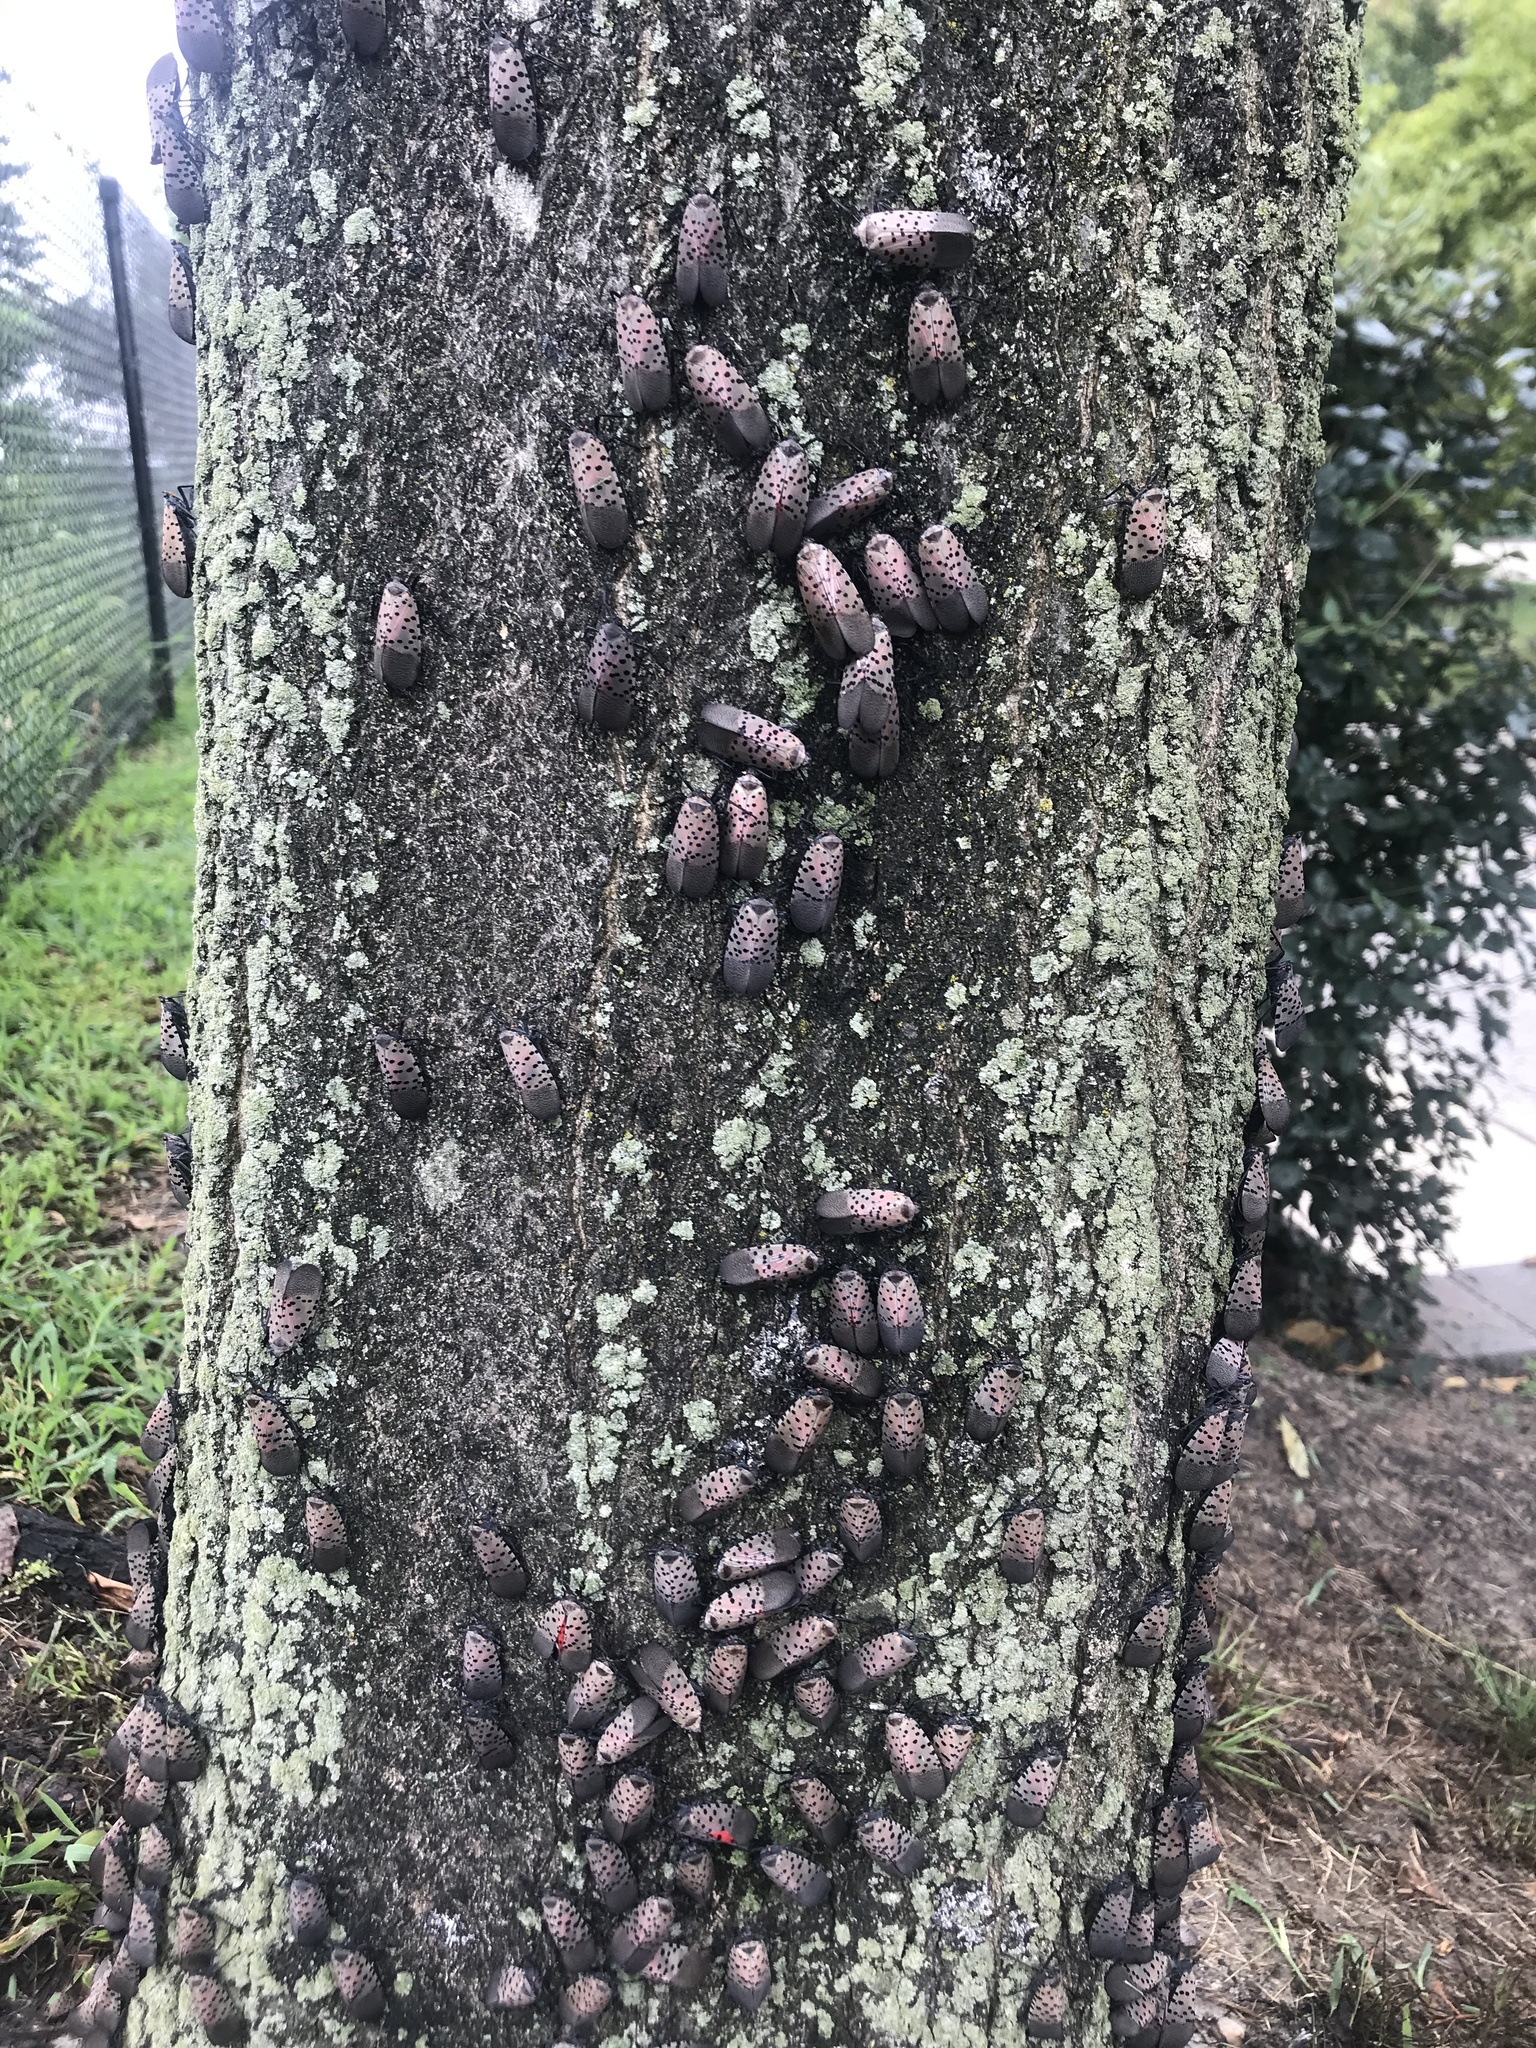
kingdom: Animalia
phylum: Arthropoda
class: Insecta
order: Hemiptera
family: Fulgoridae
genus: Lycorma
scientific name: Lycorma delicatula
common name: Spotted lanternfly
